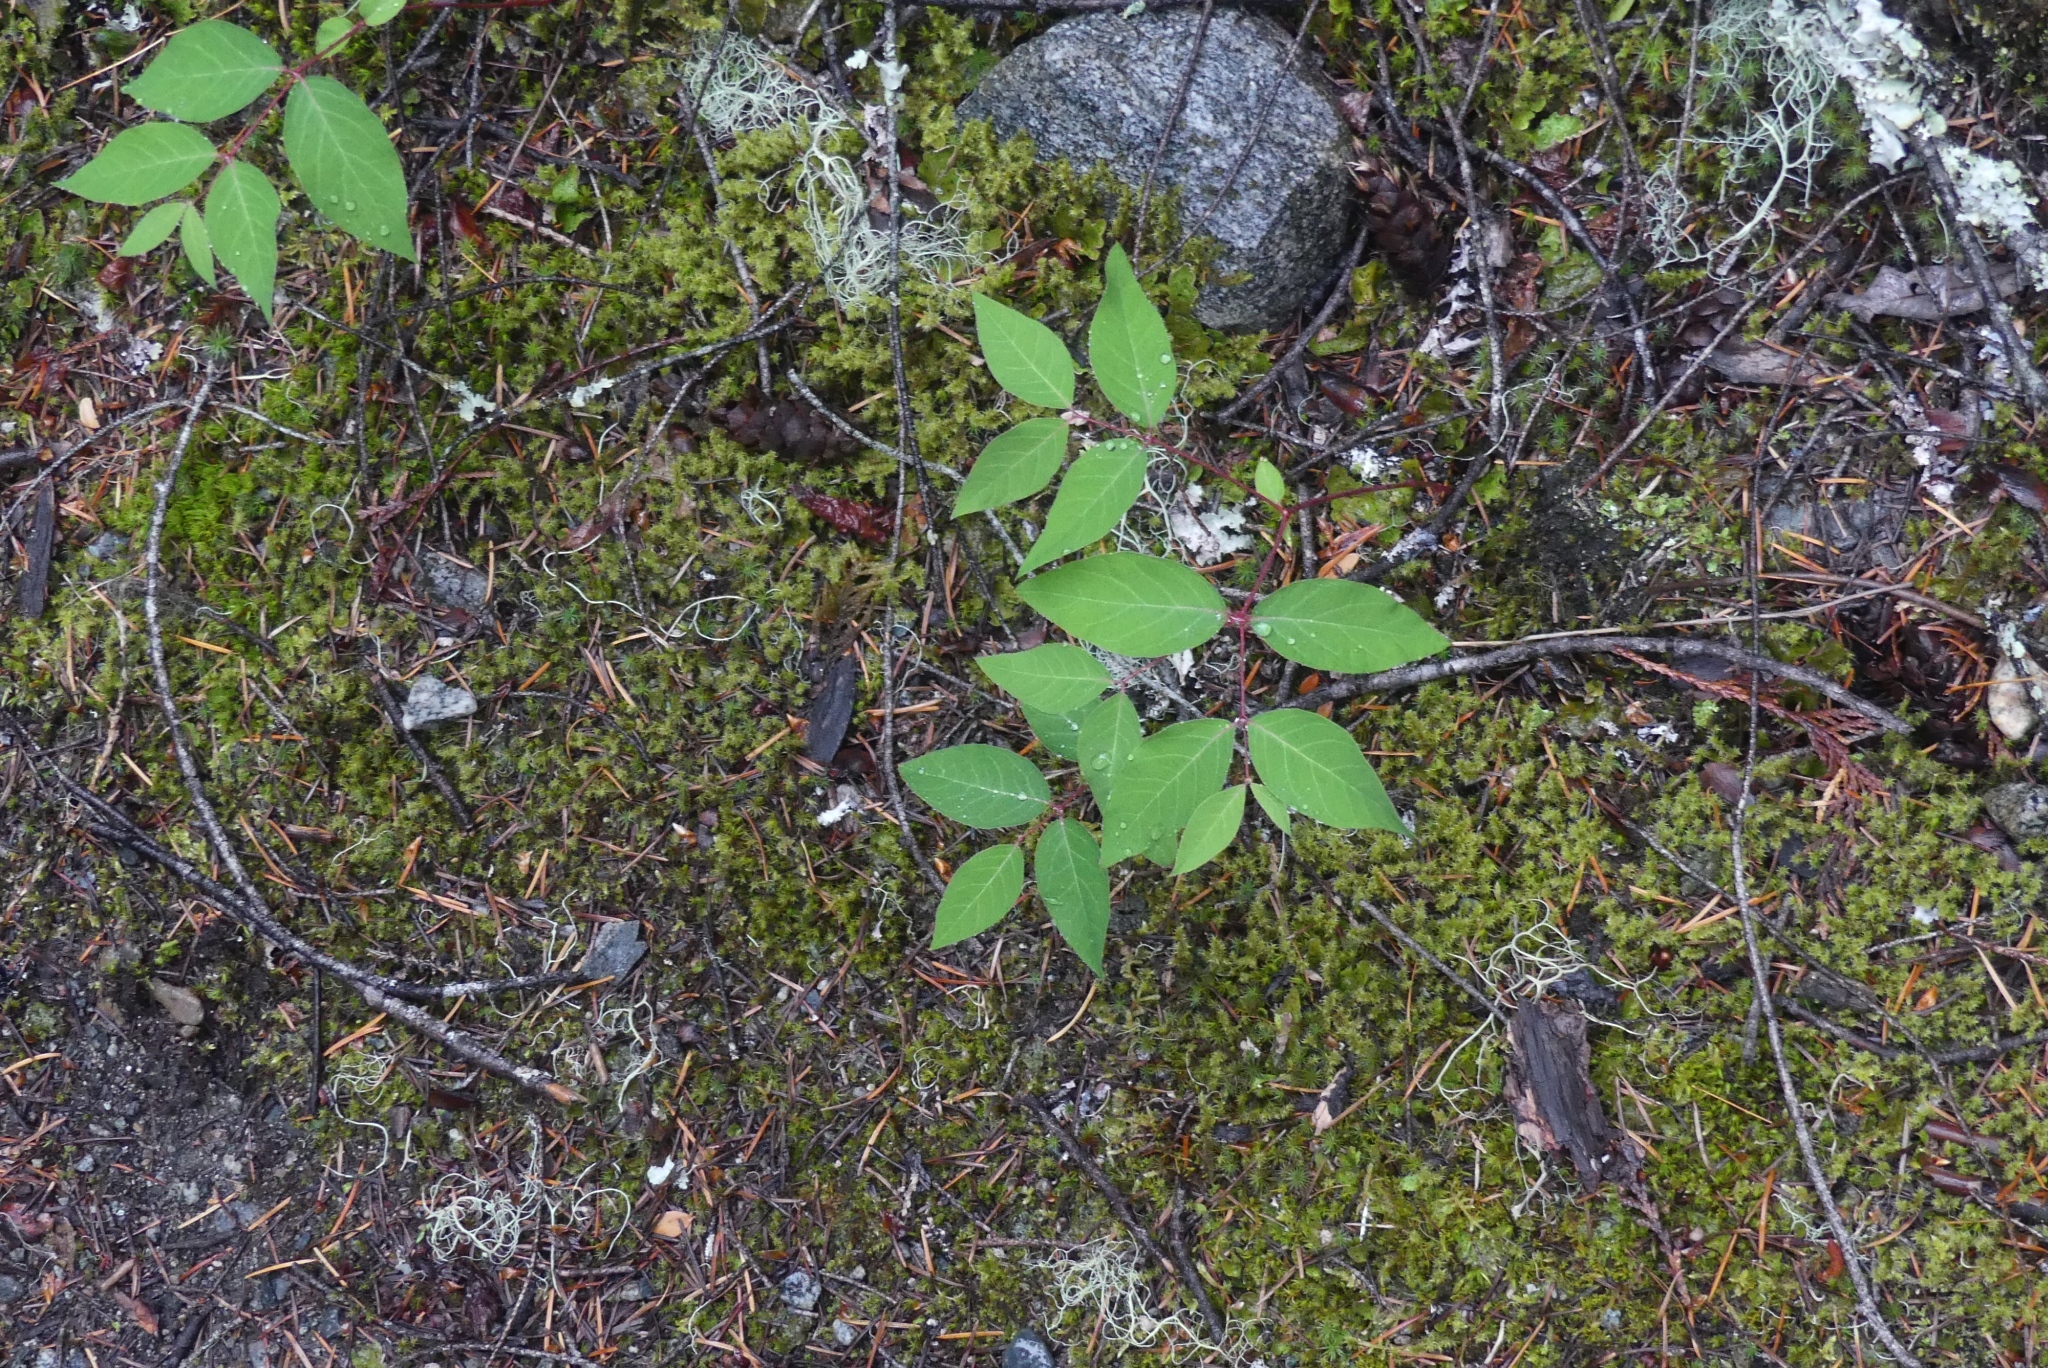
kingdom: Plantae
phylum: Tracheophyta
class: Magnoliopsida
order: Gentianales
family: Apocynaceae
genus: Apocynum
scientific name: Apocynum androsaemifolium
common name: Spreading dogbane
